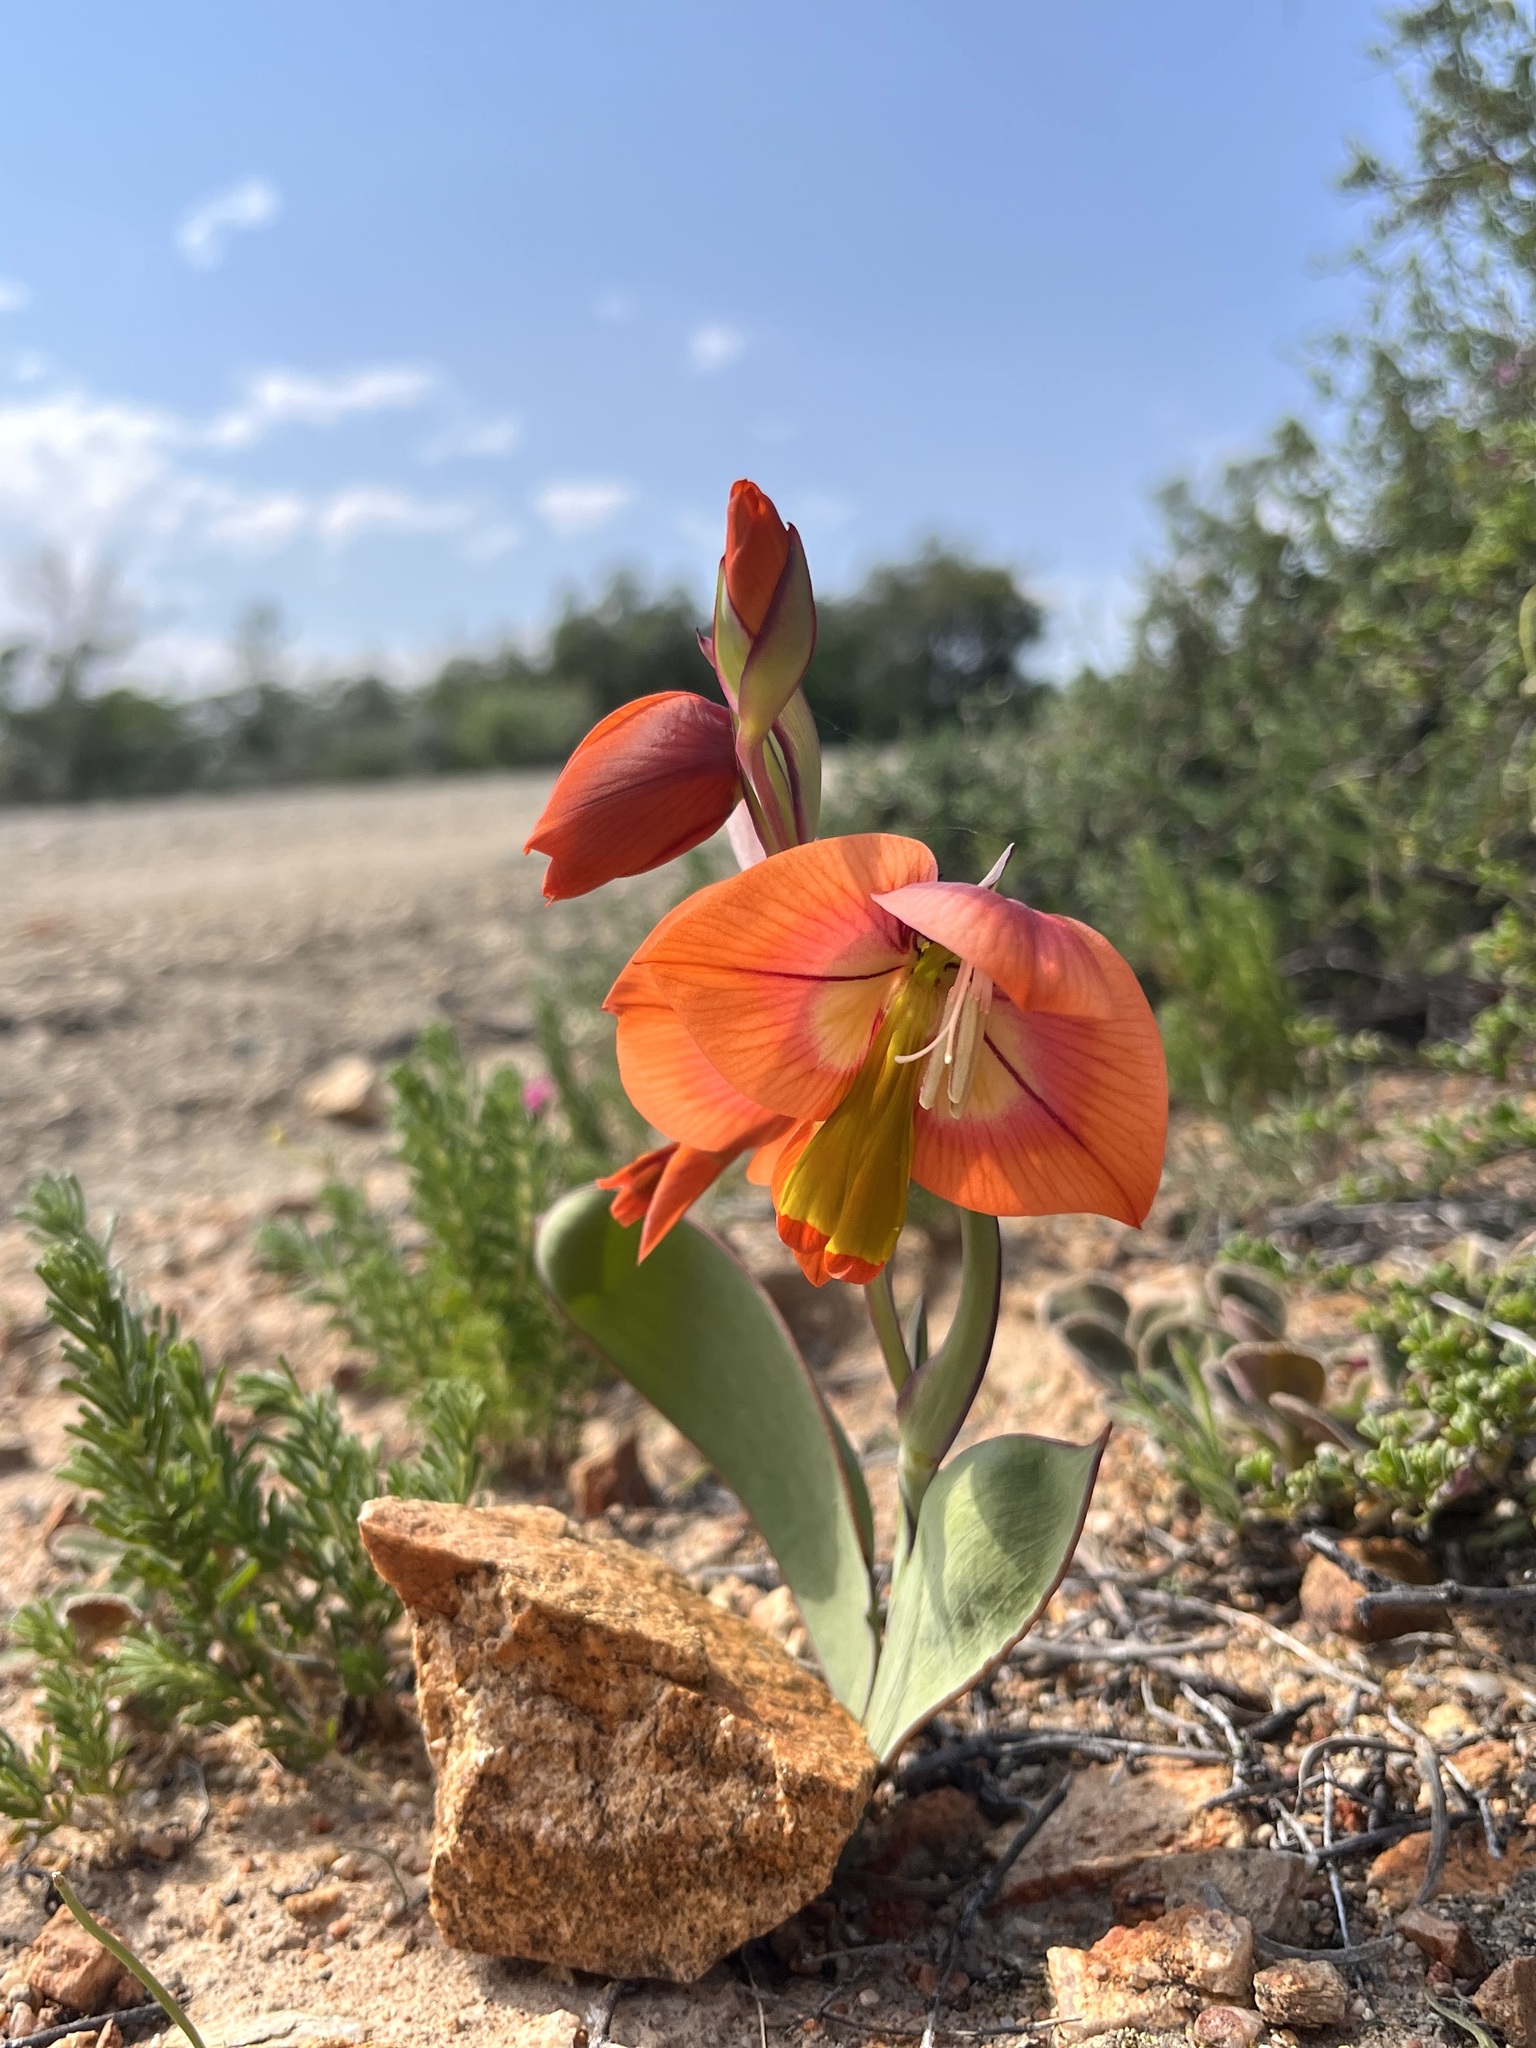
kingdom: Plantae
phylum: Tracheophyta
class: Liliopsida
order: Asparagales
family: Iridaceae
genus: Gladiolus
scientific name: Gladiolus equitans
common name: Large red kalkoentjie
